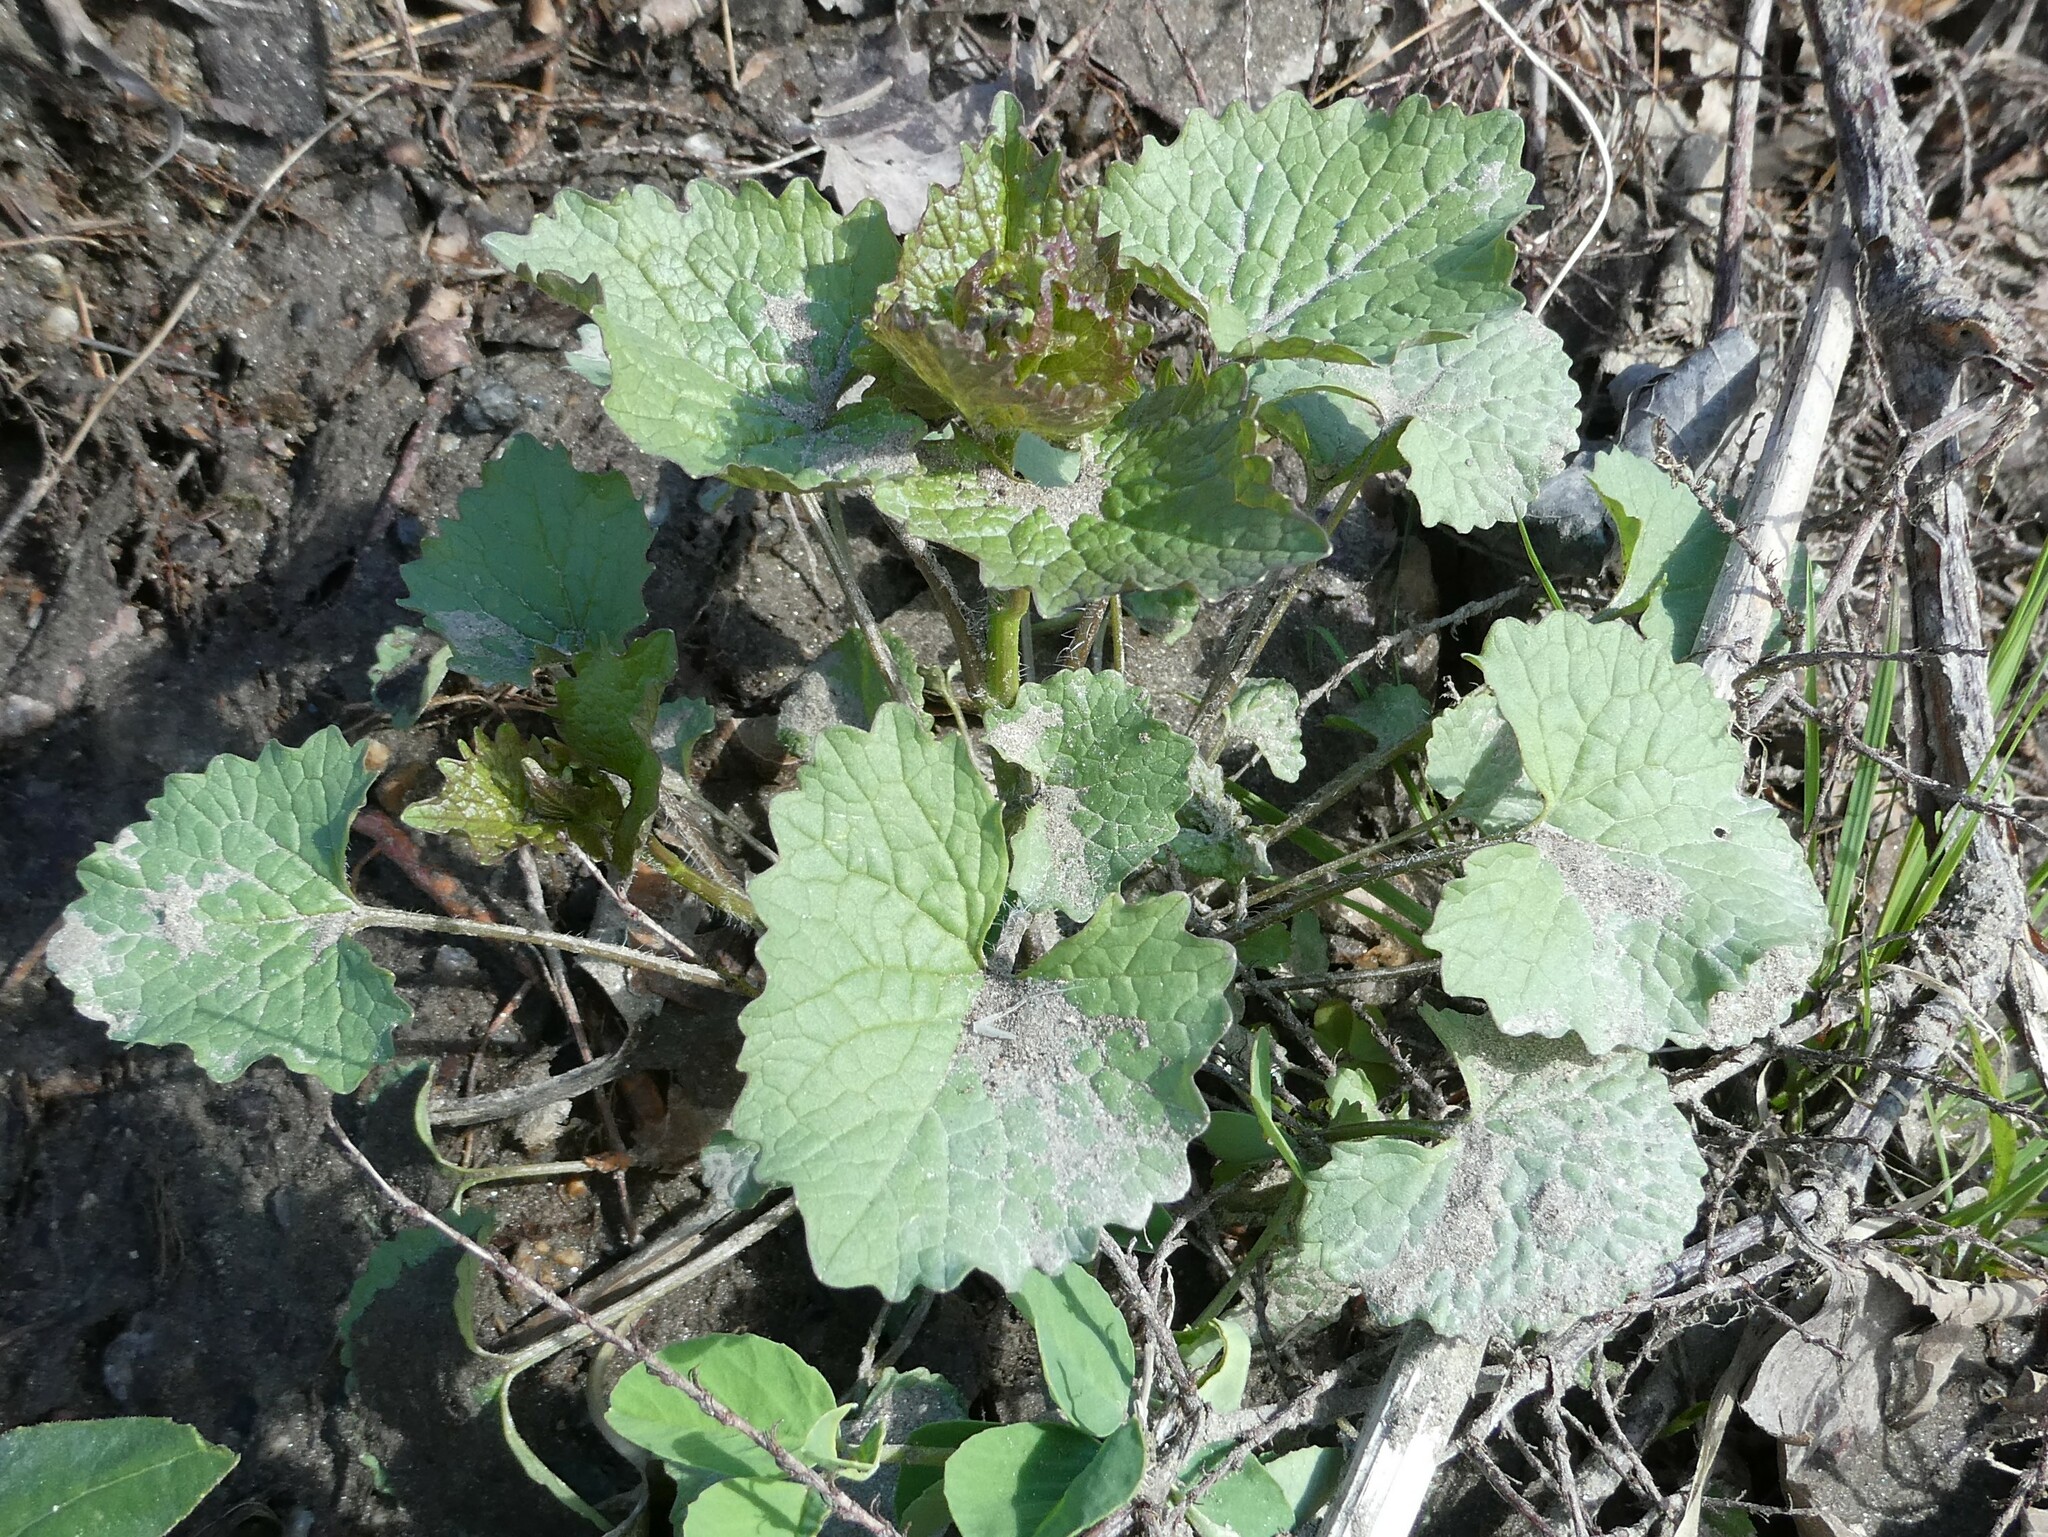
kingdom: Plantae
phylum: Tracheophyta
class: Magnoliopsida
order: Brassicales
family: Brassicaceae
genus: Alliaria
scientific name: Alliaria petiolata
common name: Garlic mustard
